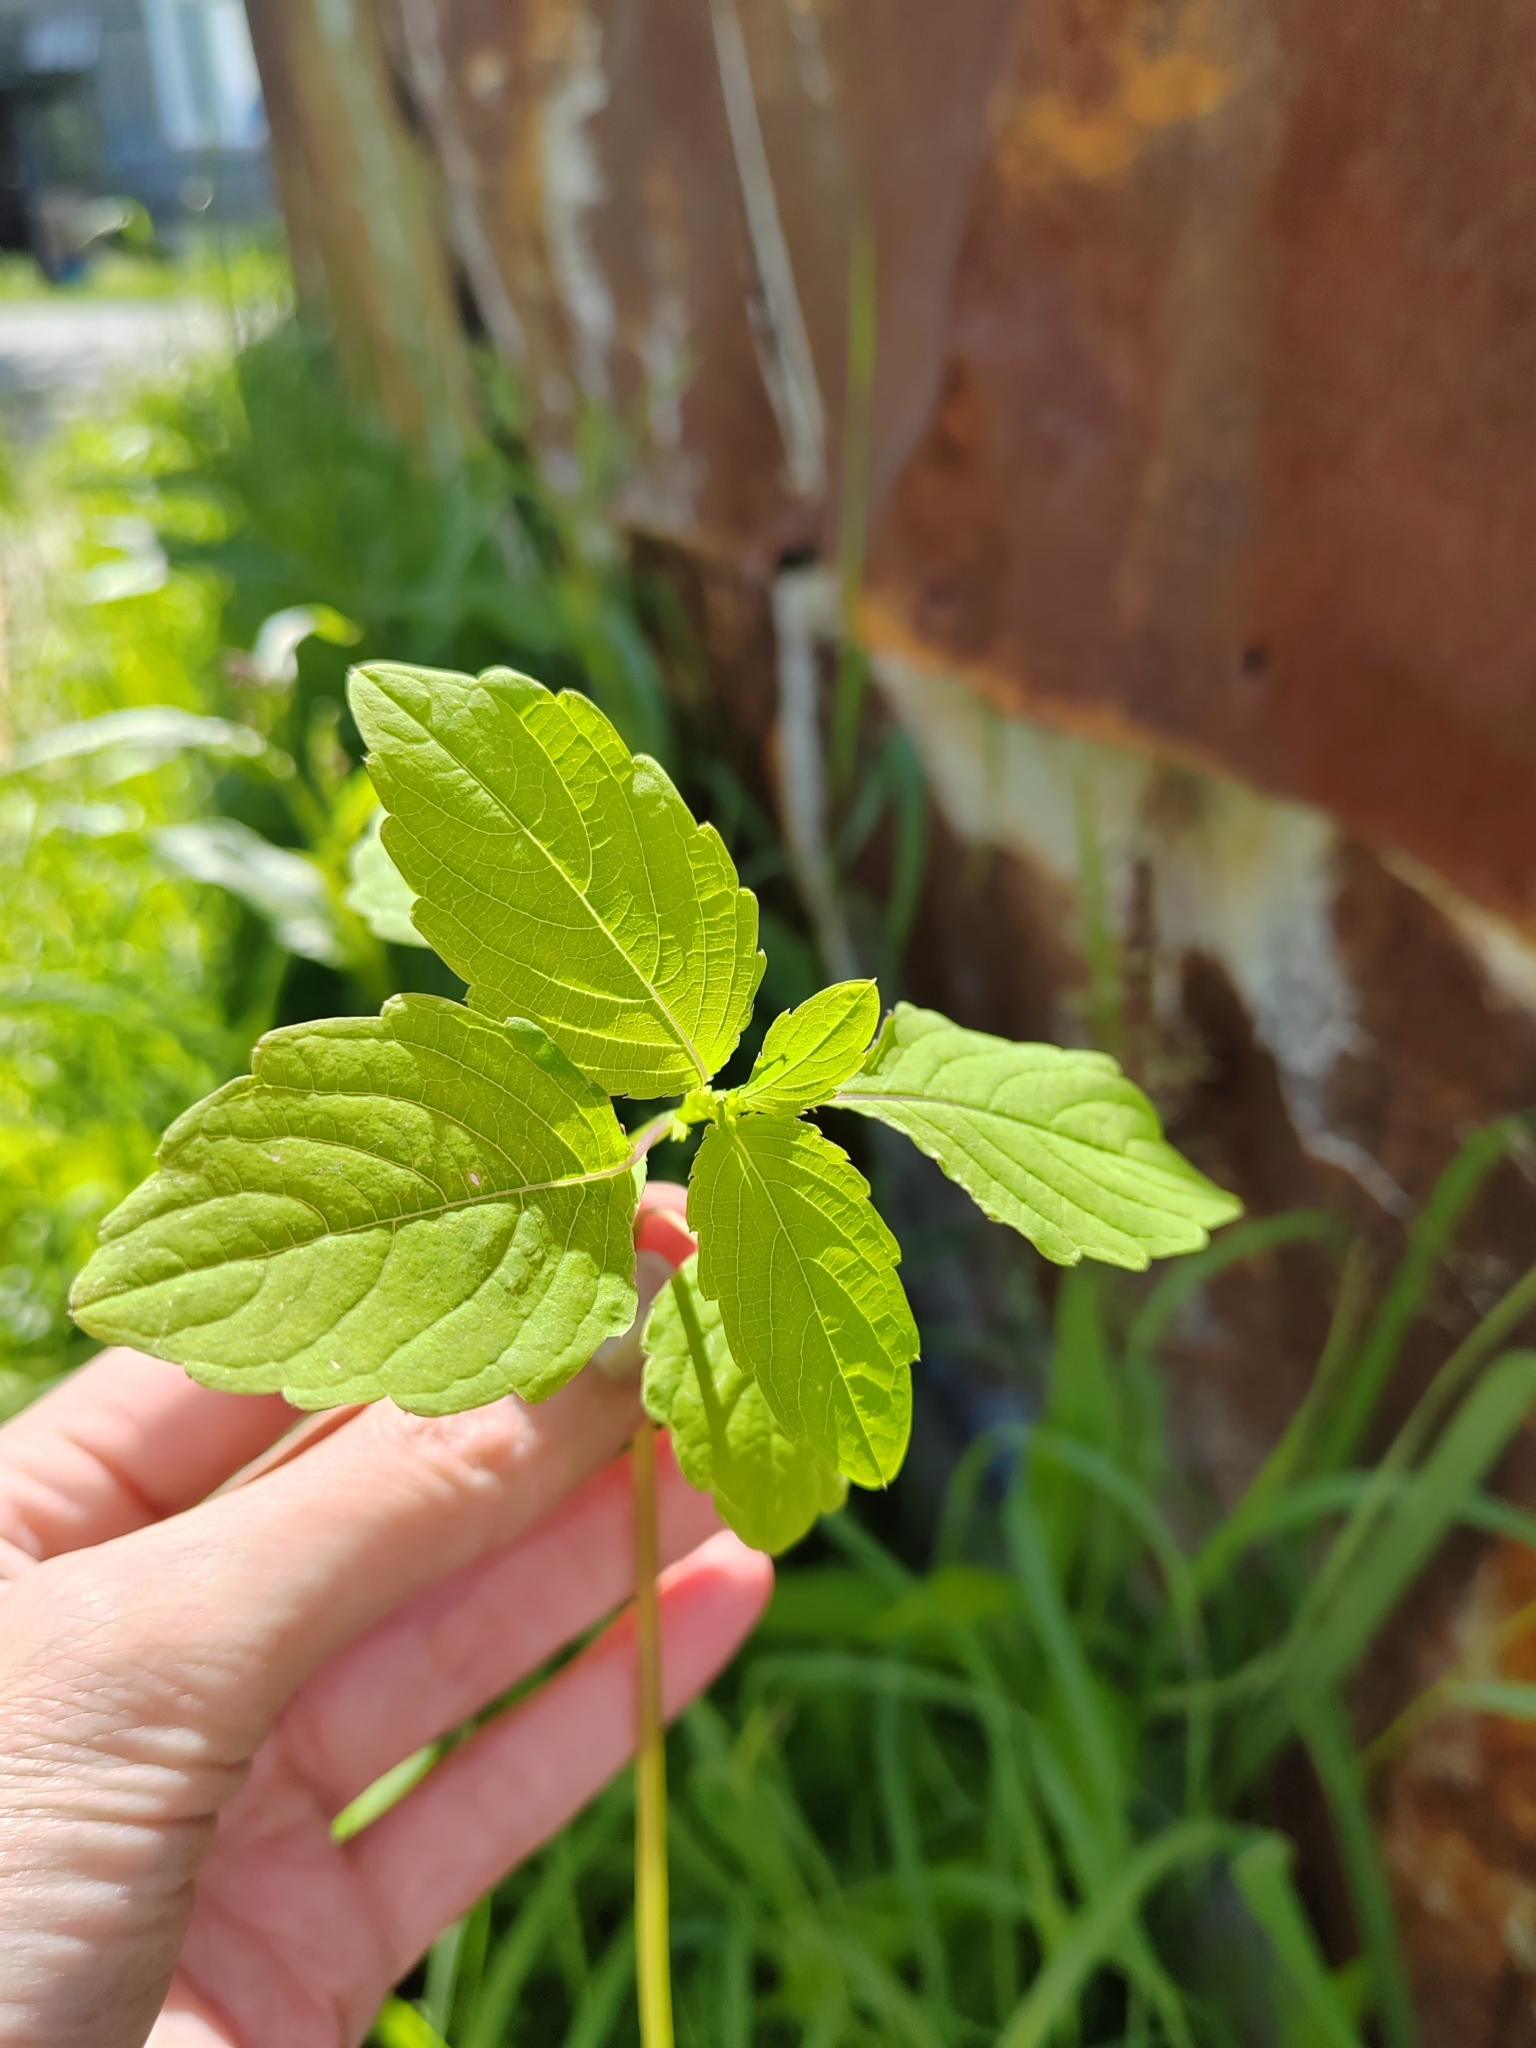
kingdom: Plantae
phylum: Tracheophyta
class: Magnoliopsida
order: Ericales
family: Balsaminaceae
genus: Impatiens
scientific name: Impatiens noli-tangere
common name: Touch-me-not balsam
